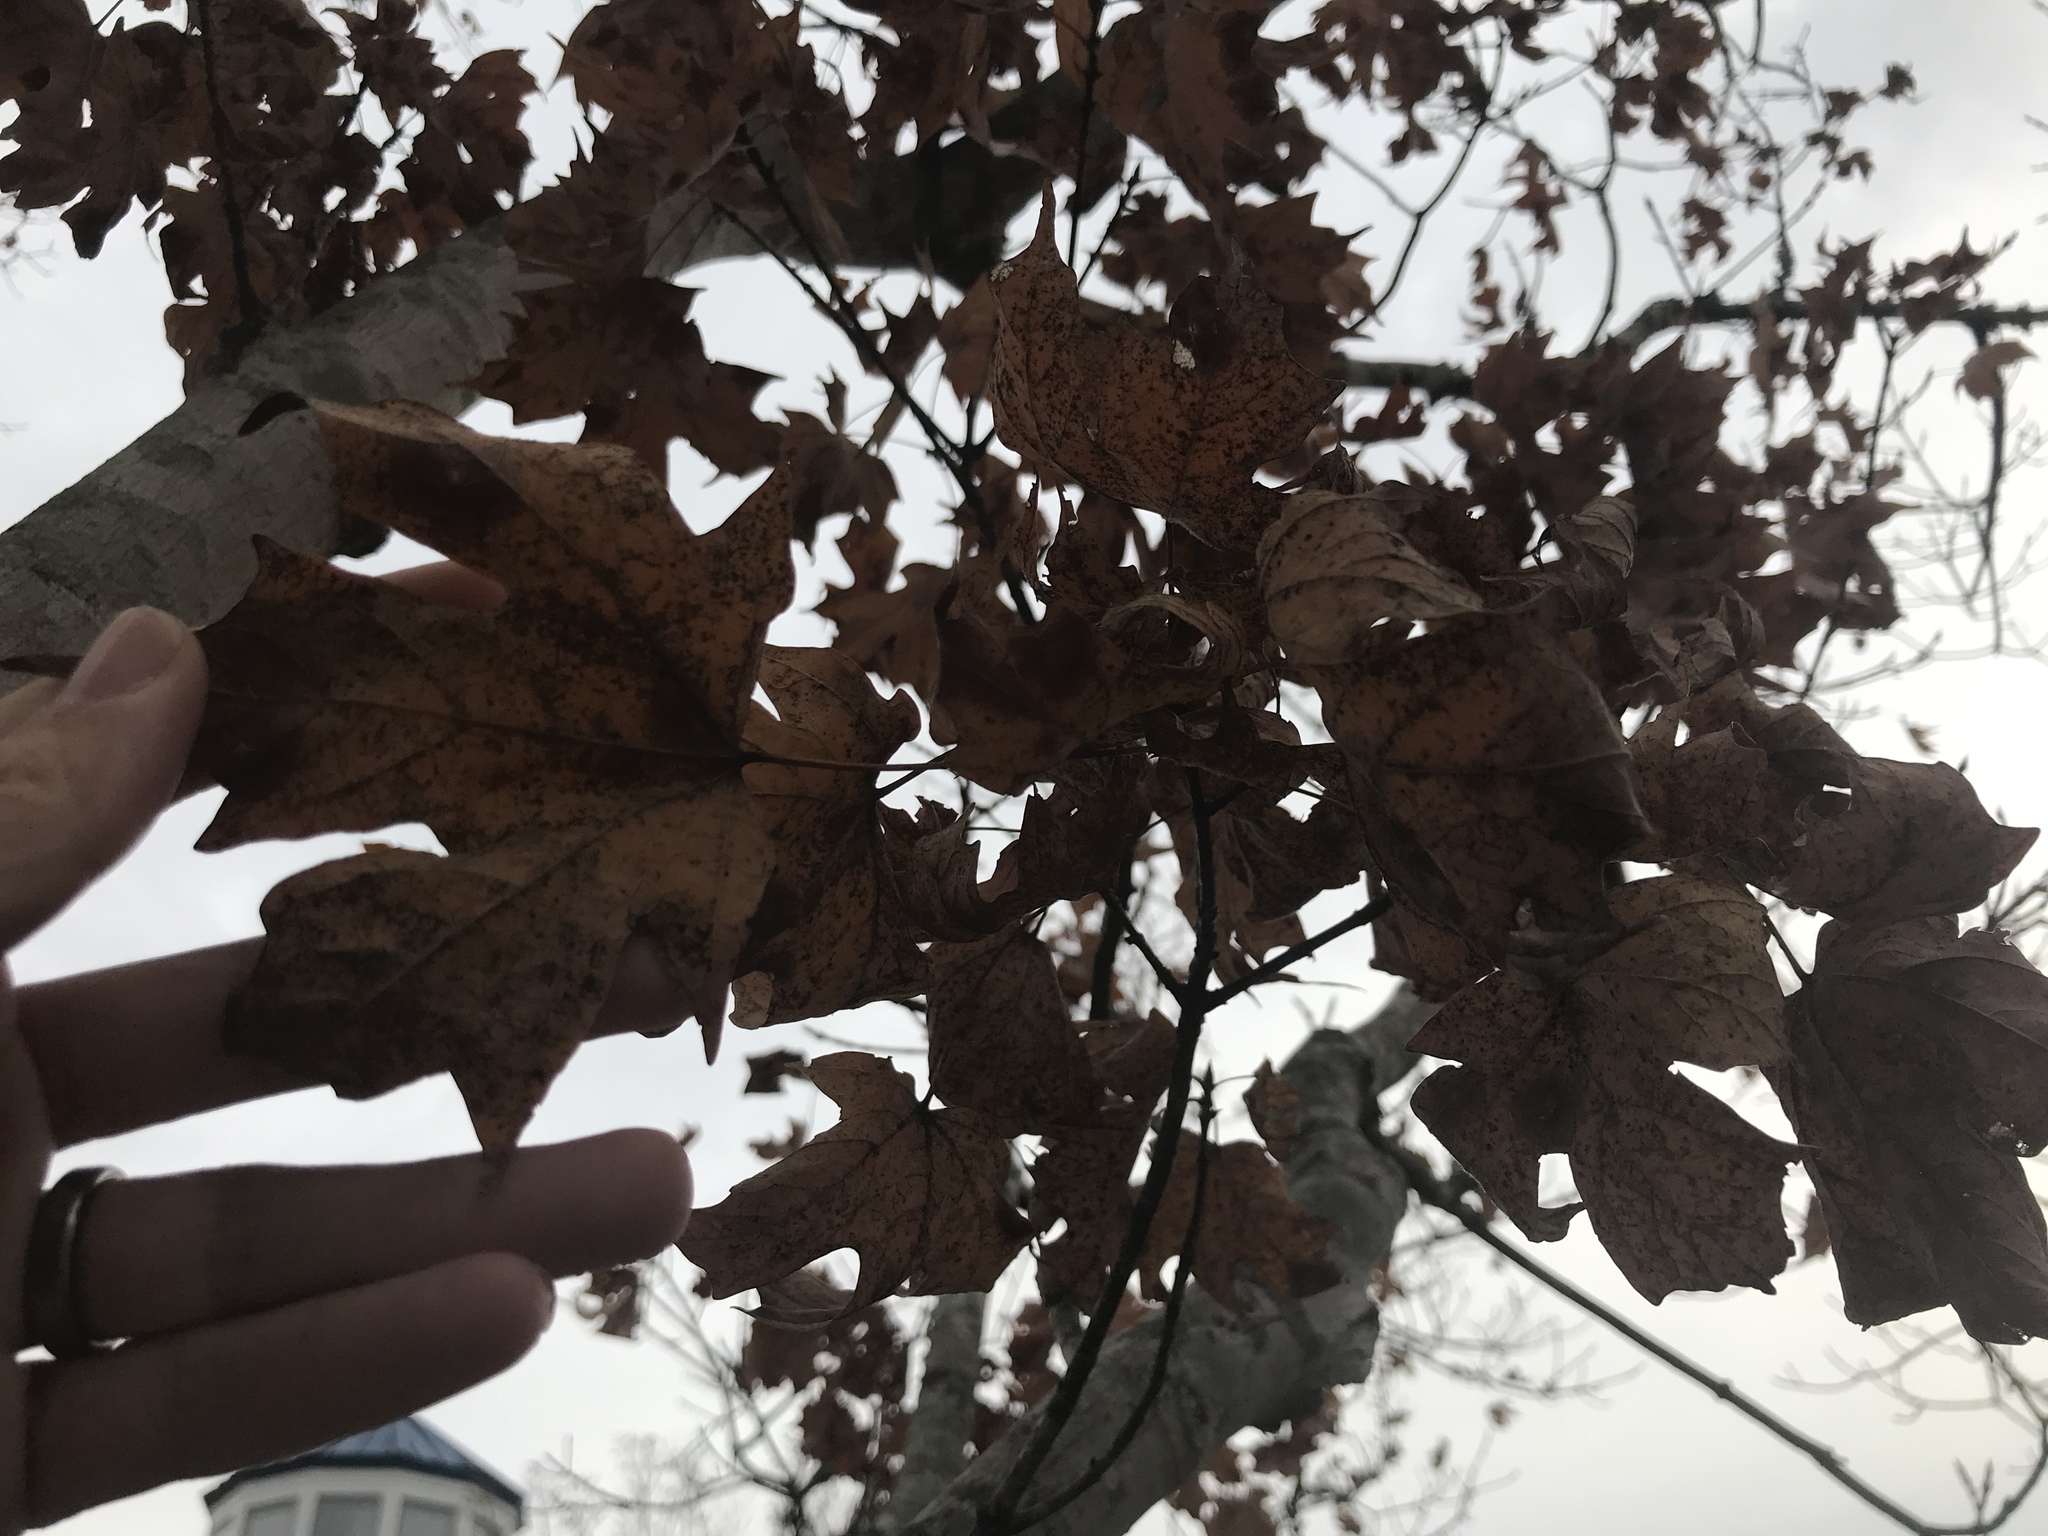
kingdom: Plantae
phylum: Tracheophyta
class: Magnoliopsida
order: Sapindales
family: Sapindaceae
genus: Acer
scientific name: Acer floridanum
